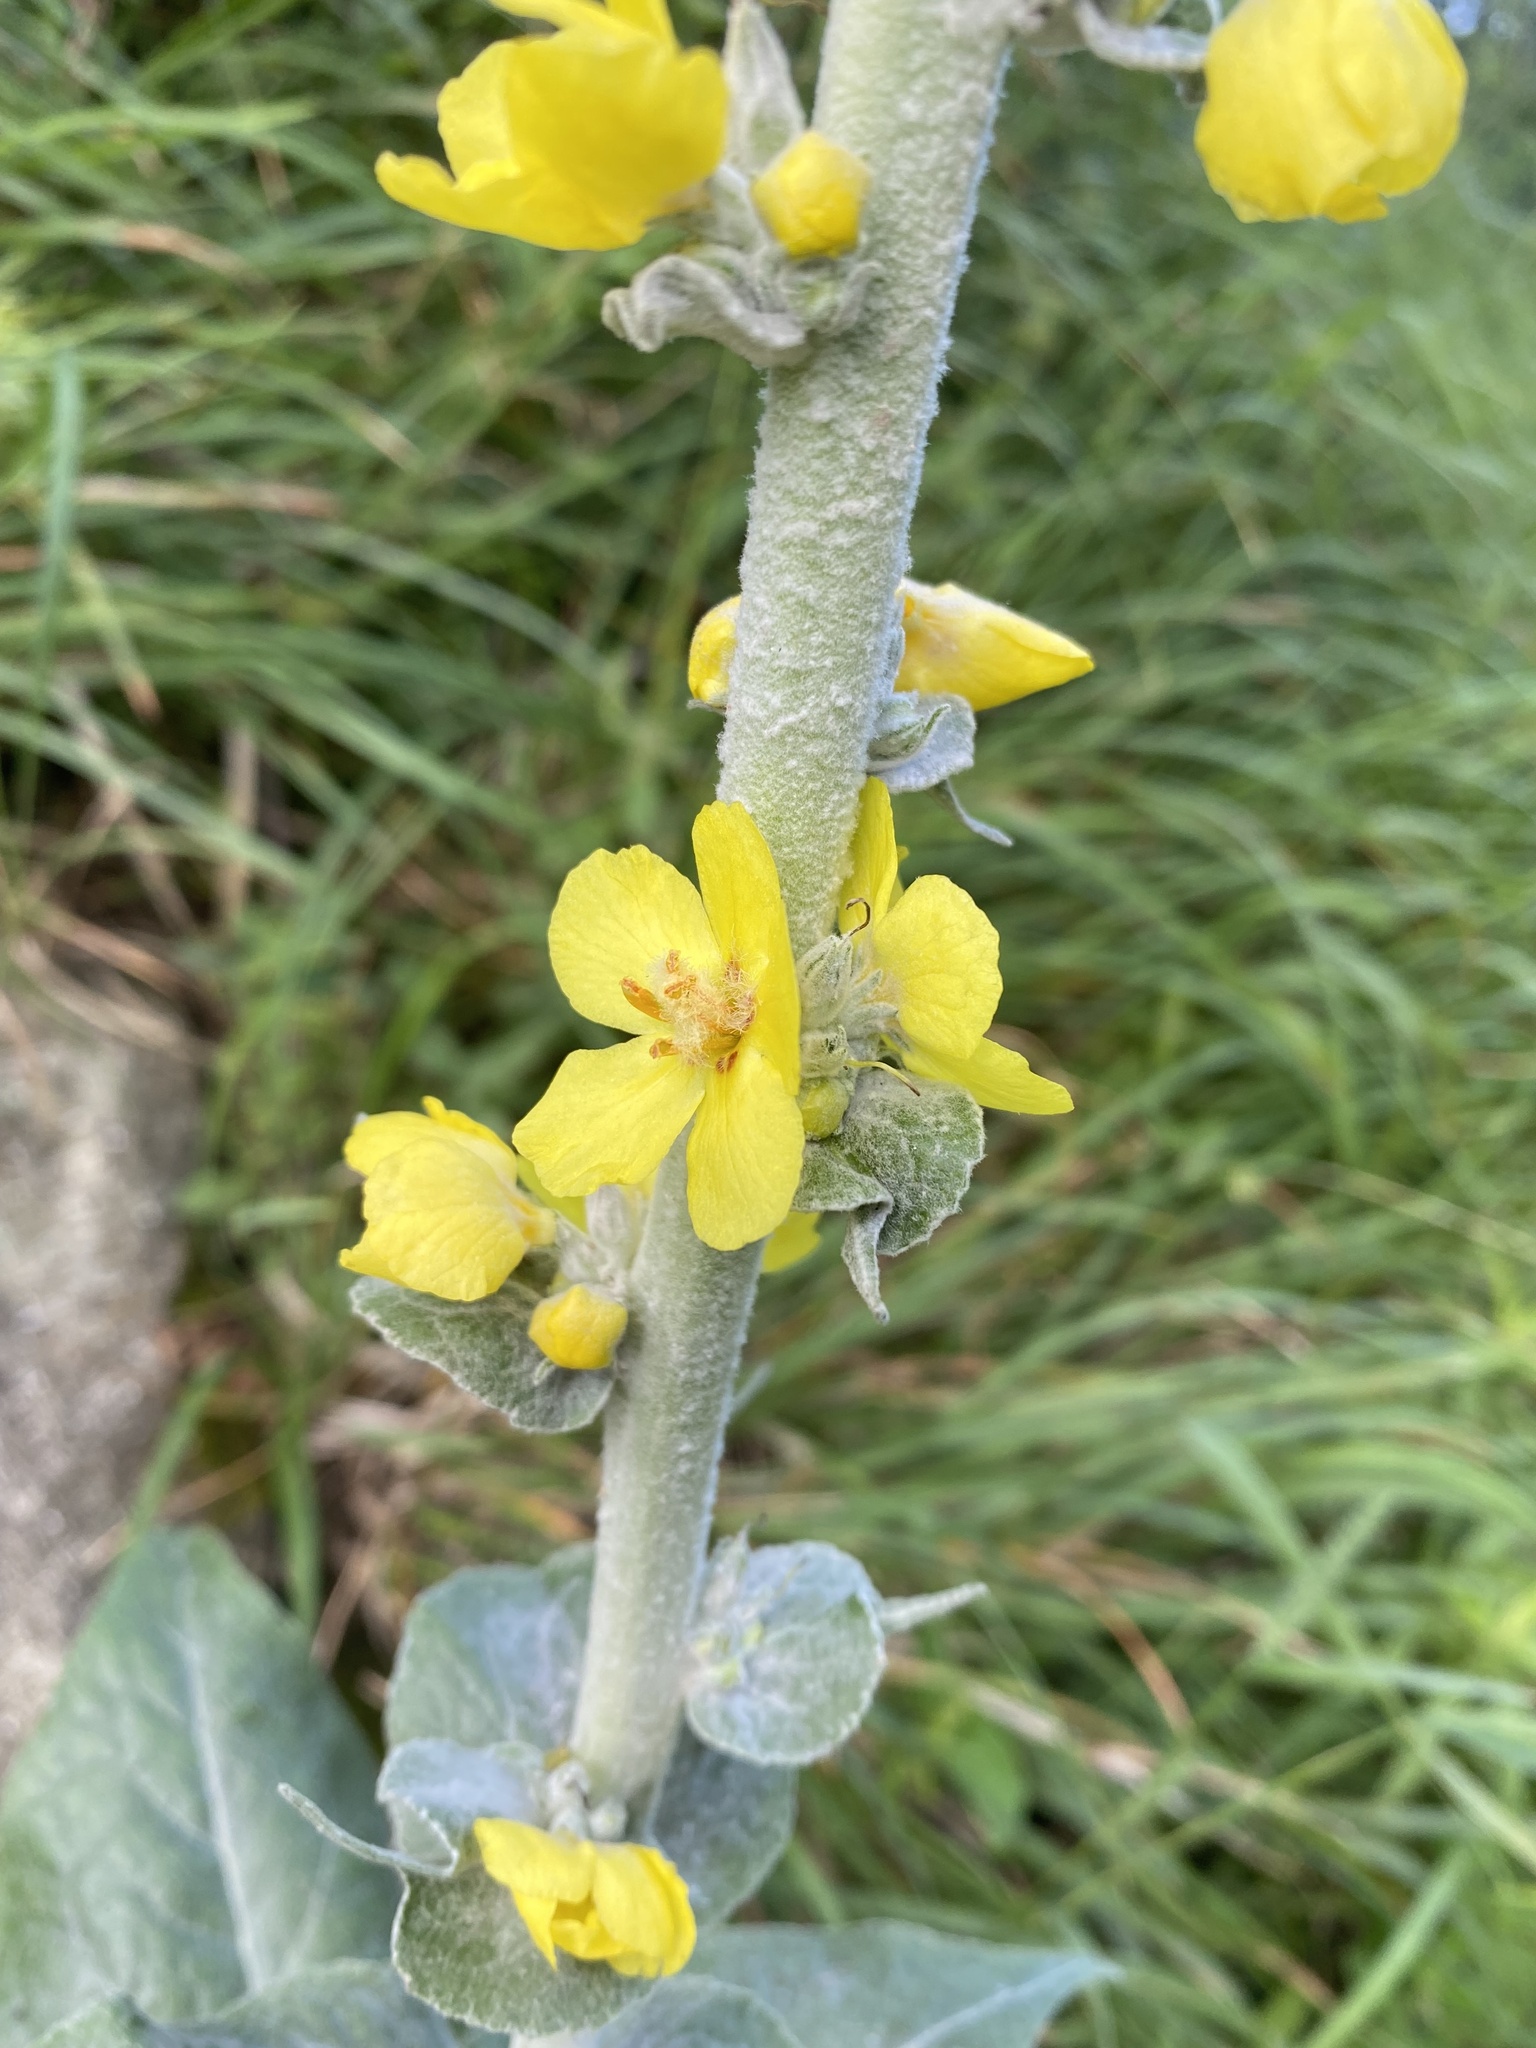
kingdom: Plantae
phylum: Tracheophyta
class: Magnoliopsida
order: Lamiales
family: Scrophulariaceae
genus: Verbascum
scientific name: Verbascum gnaphalodes
